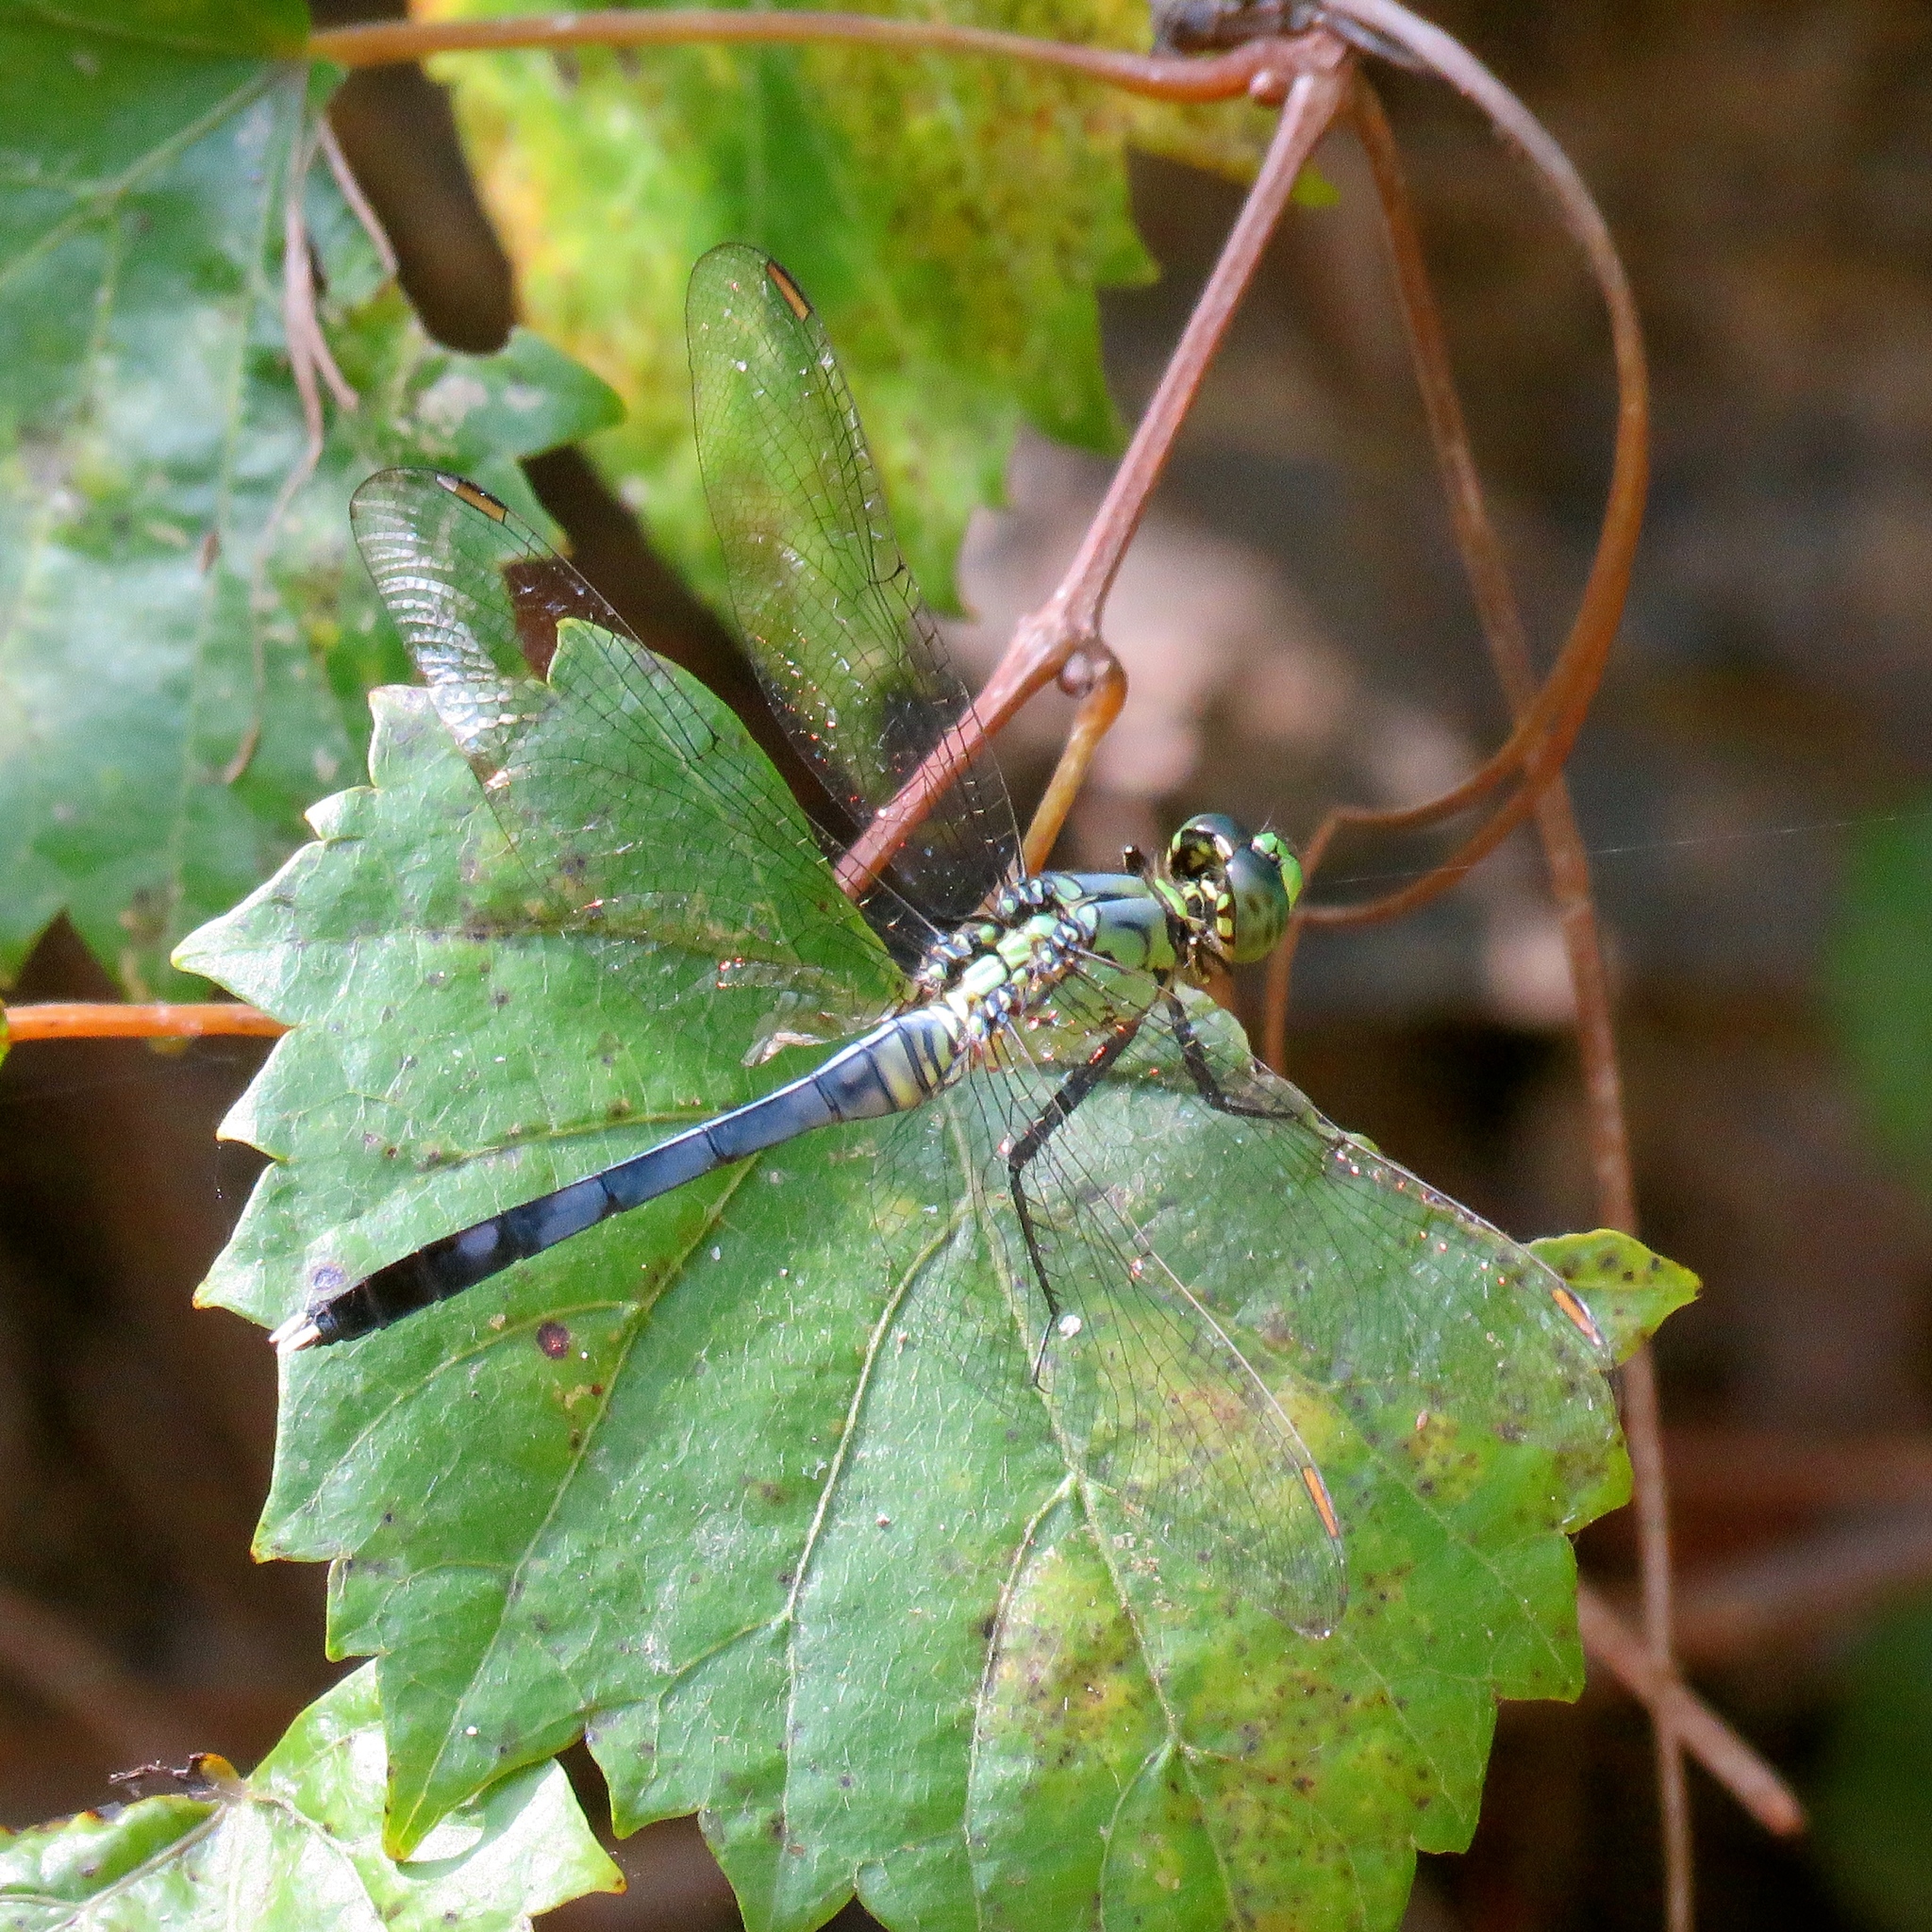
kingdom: Animalia
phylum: Arthropoda
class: Insecta
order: Odonata
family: Libellulidae
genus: Erythemis
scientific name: Erythemis simplicicollis
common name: Eastern pondhawk
